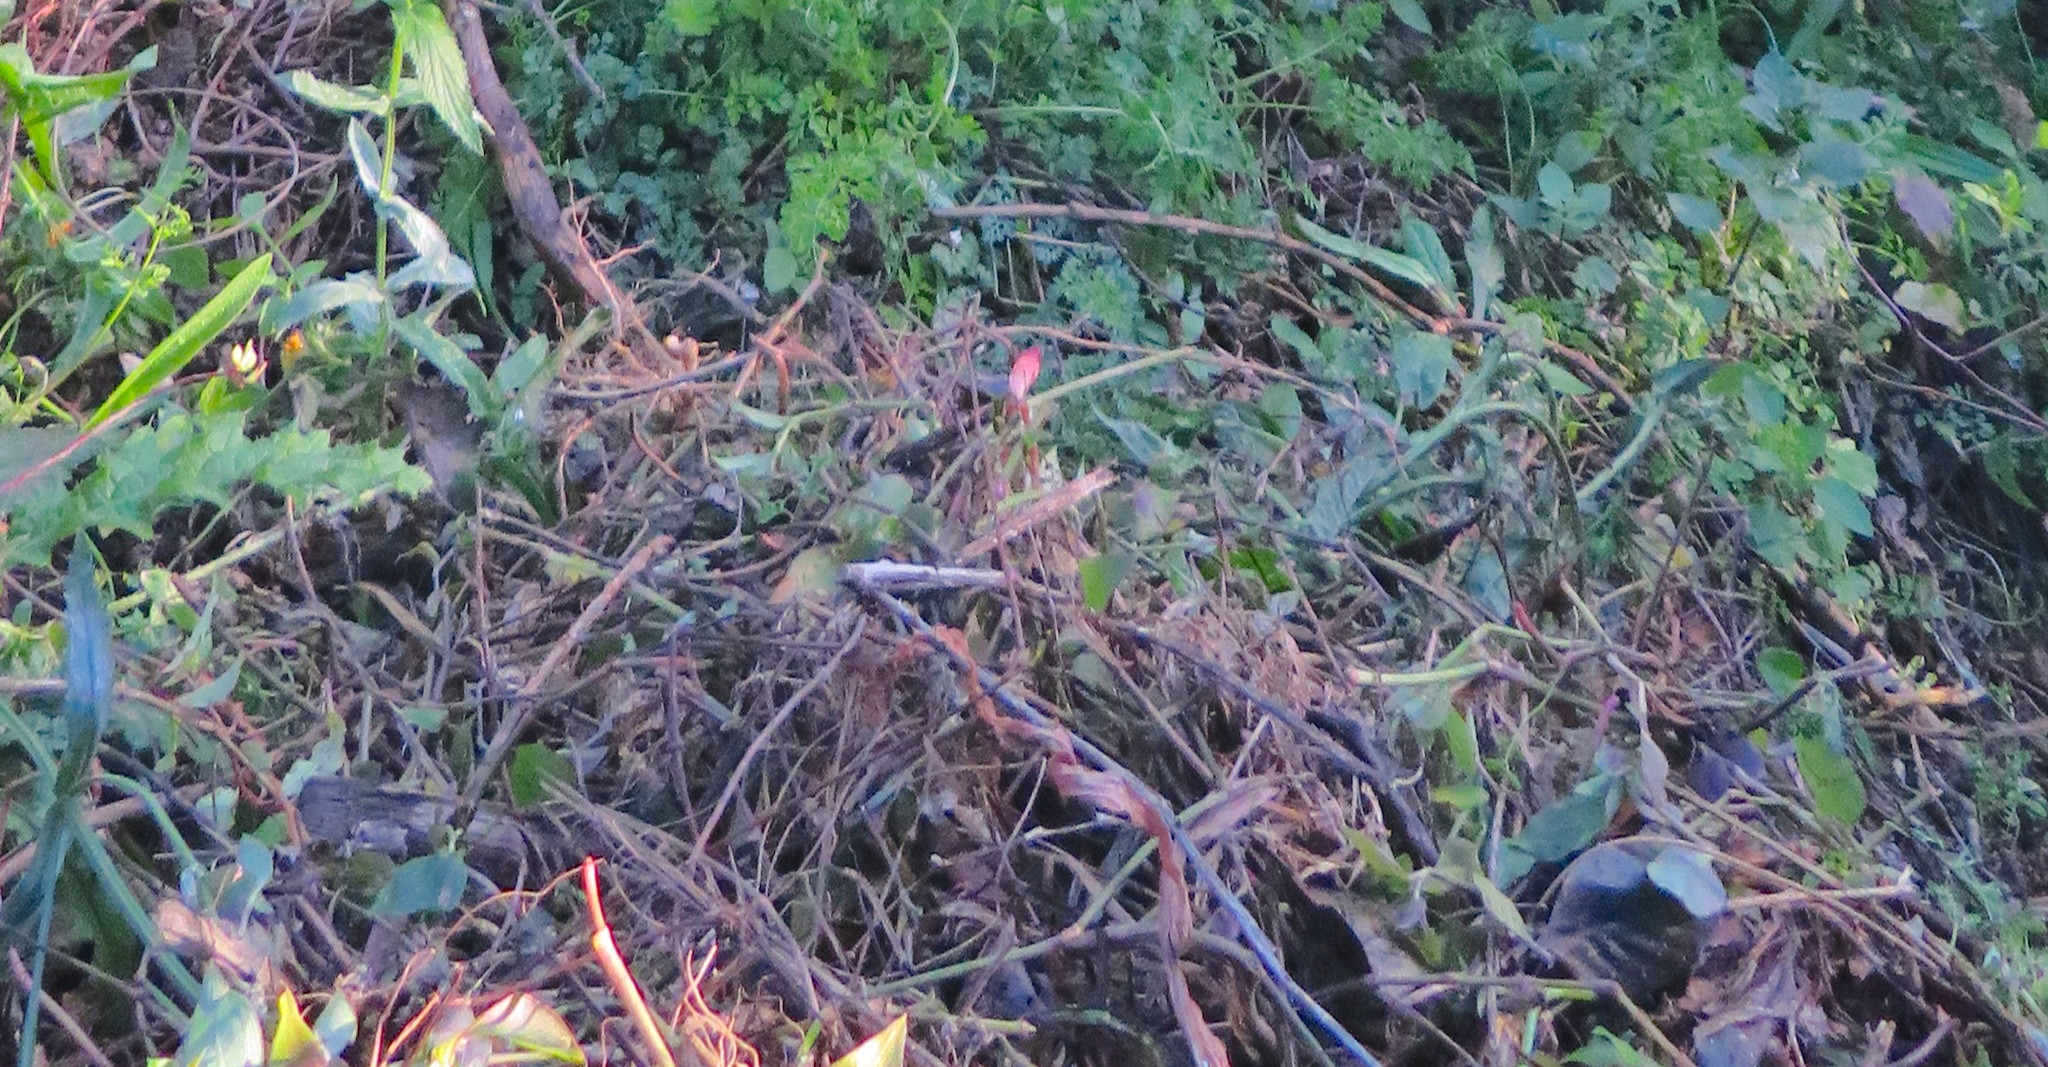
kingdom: Plantae
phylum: Tracheophyta
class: Liliopsida
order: Commelinales
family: Commelinaceae
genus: Tradescantia
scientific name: Tradescantia fluminensis
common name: Wandering-jew
